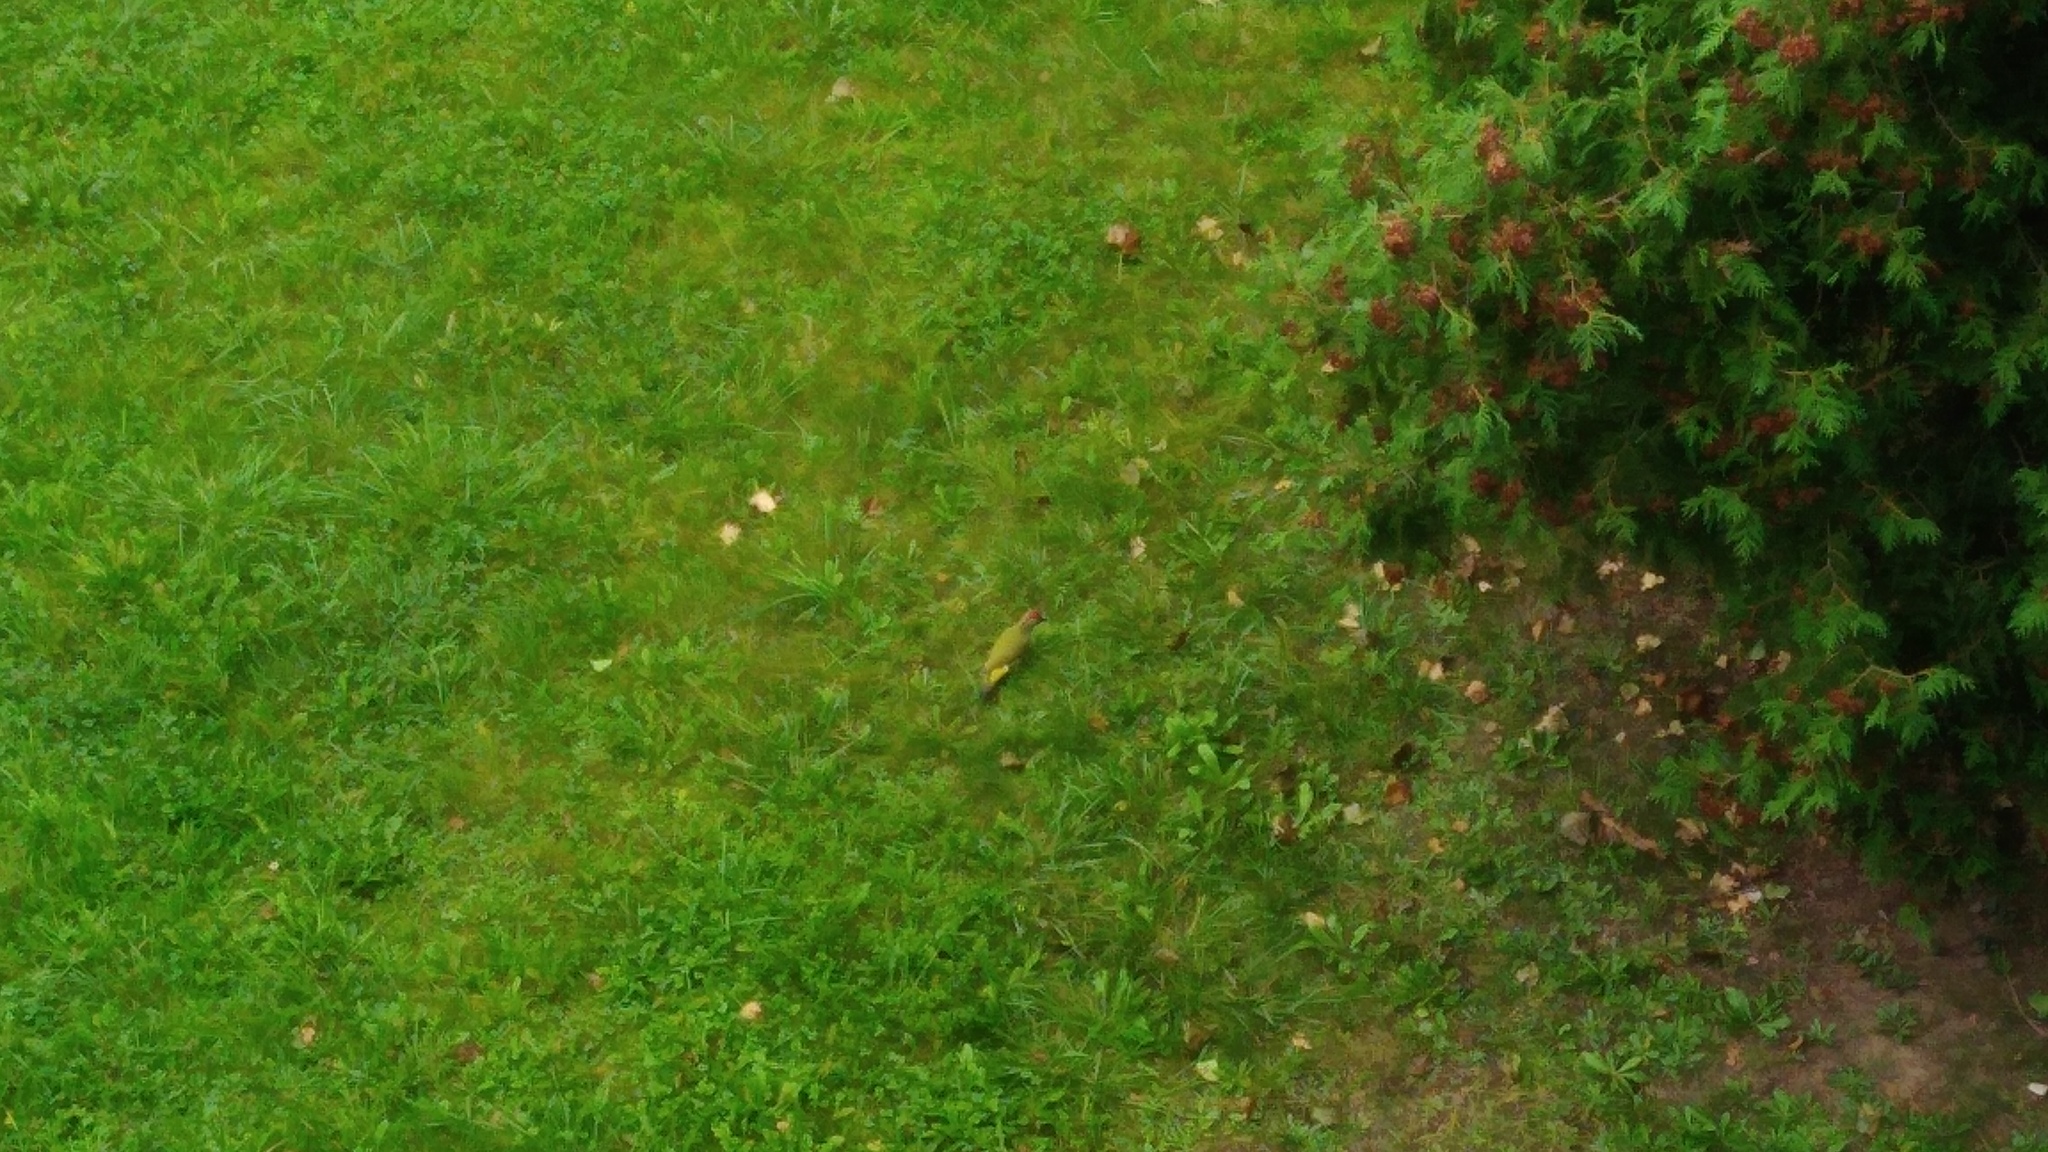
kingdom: Animalia
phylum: Chordata
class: Aves
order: Piciformes
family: Picidae
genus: Picus
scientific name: Picus viridis
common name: European green woodpecker
